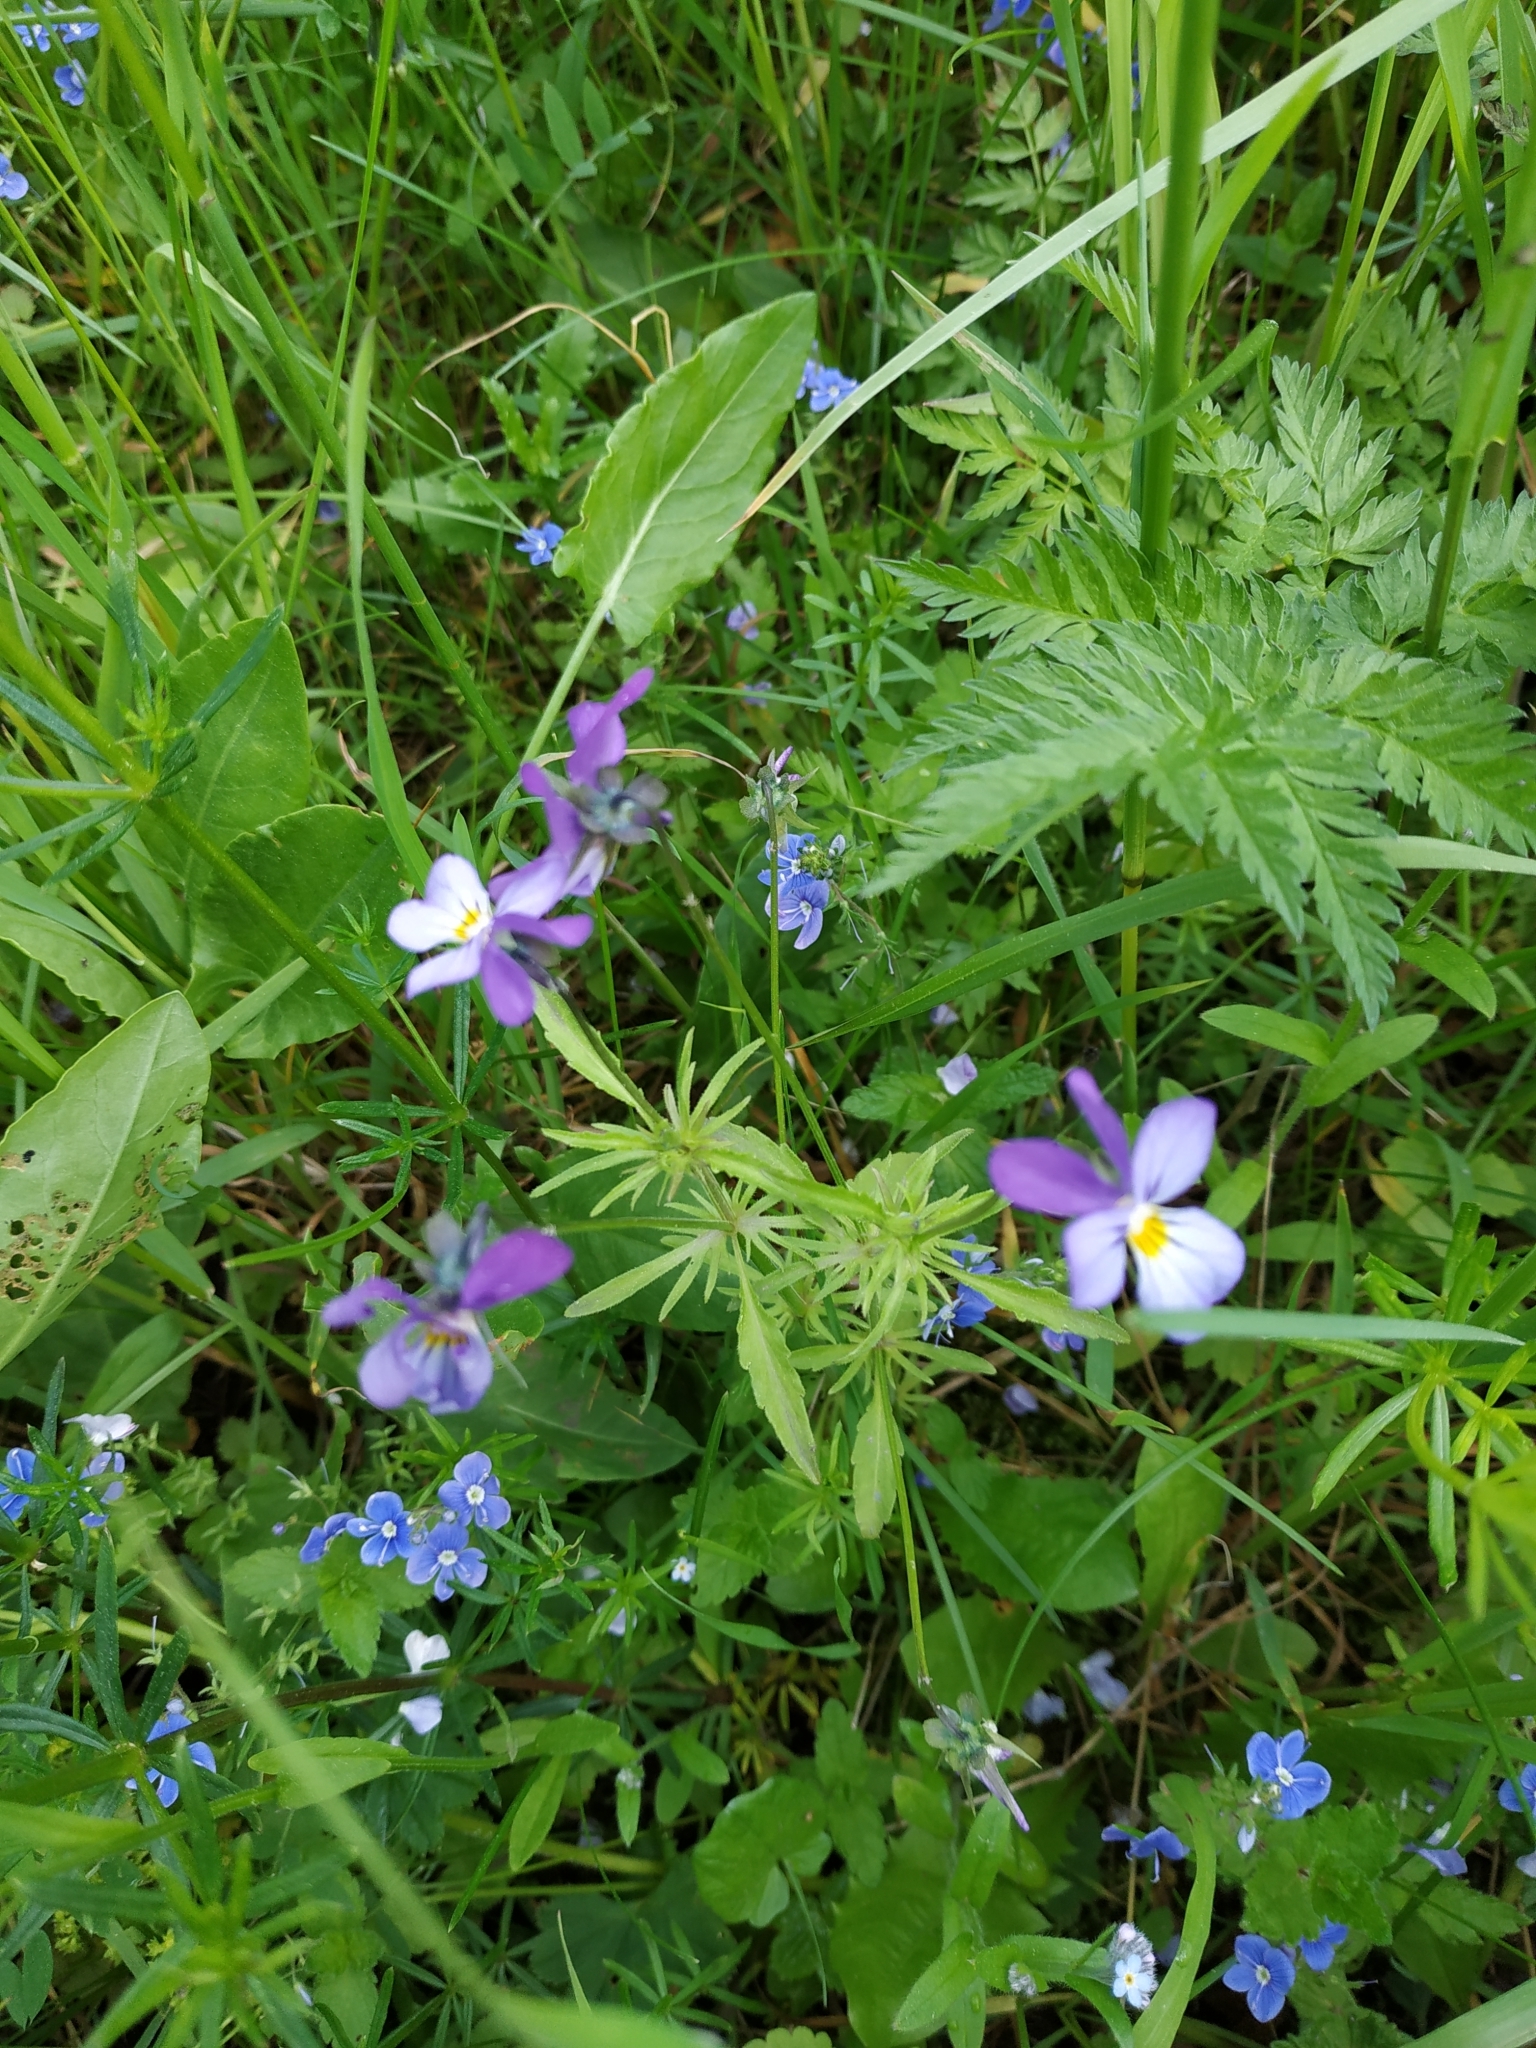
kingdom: Plantae
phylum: Tracheophyta
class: Magnoliopsida
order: Malpighiales
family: Violaceae
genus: Viola
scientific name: Viola tricolor
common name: Pansy
